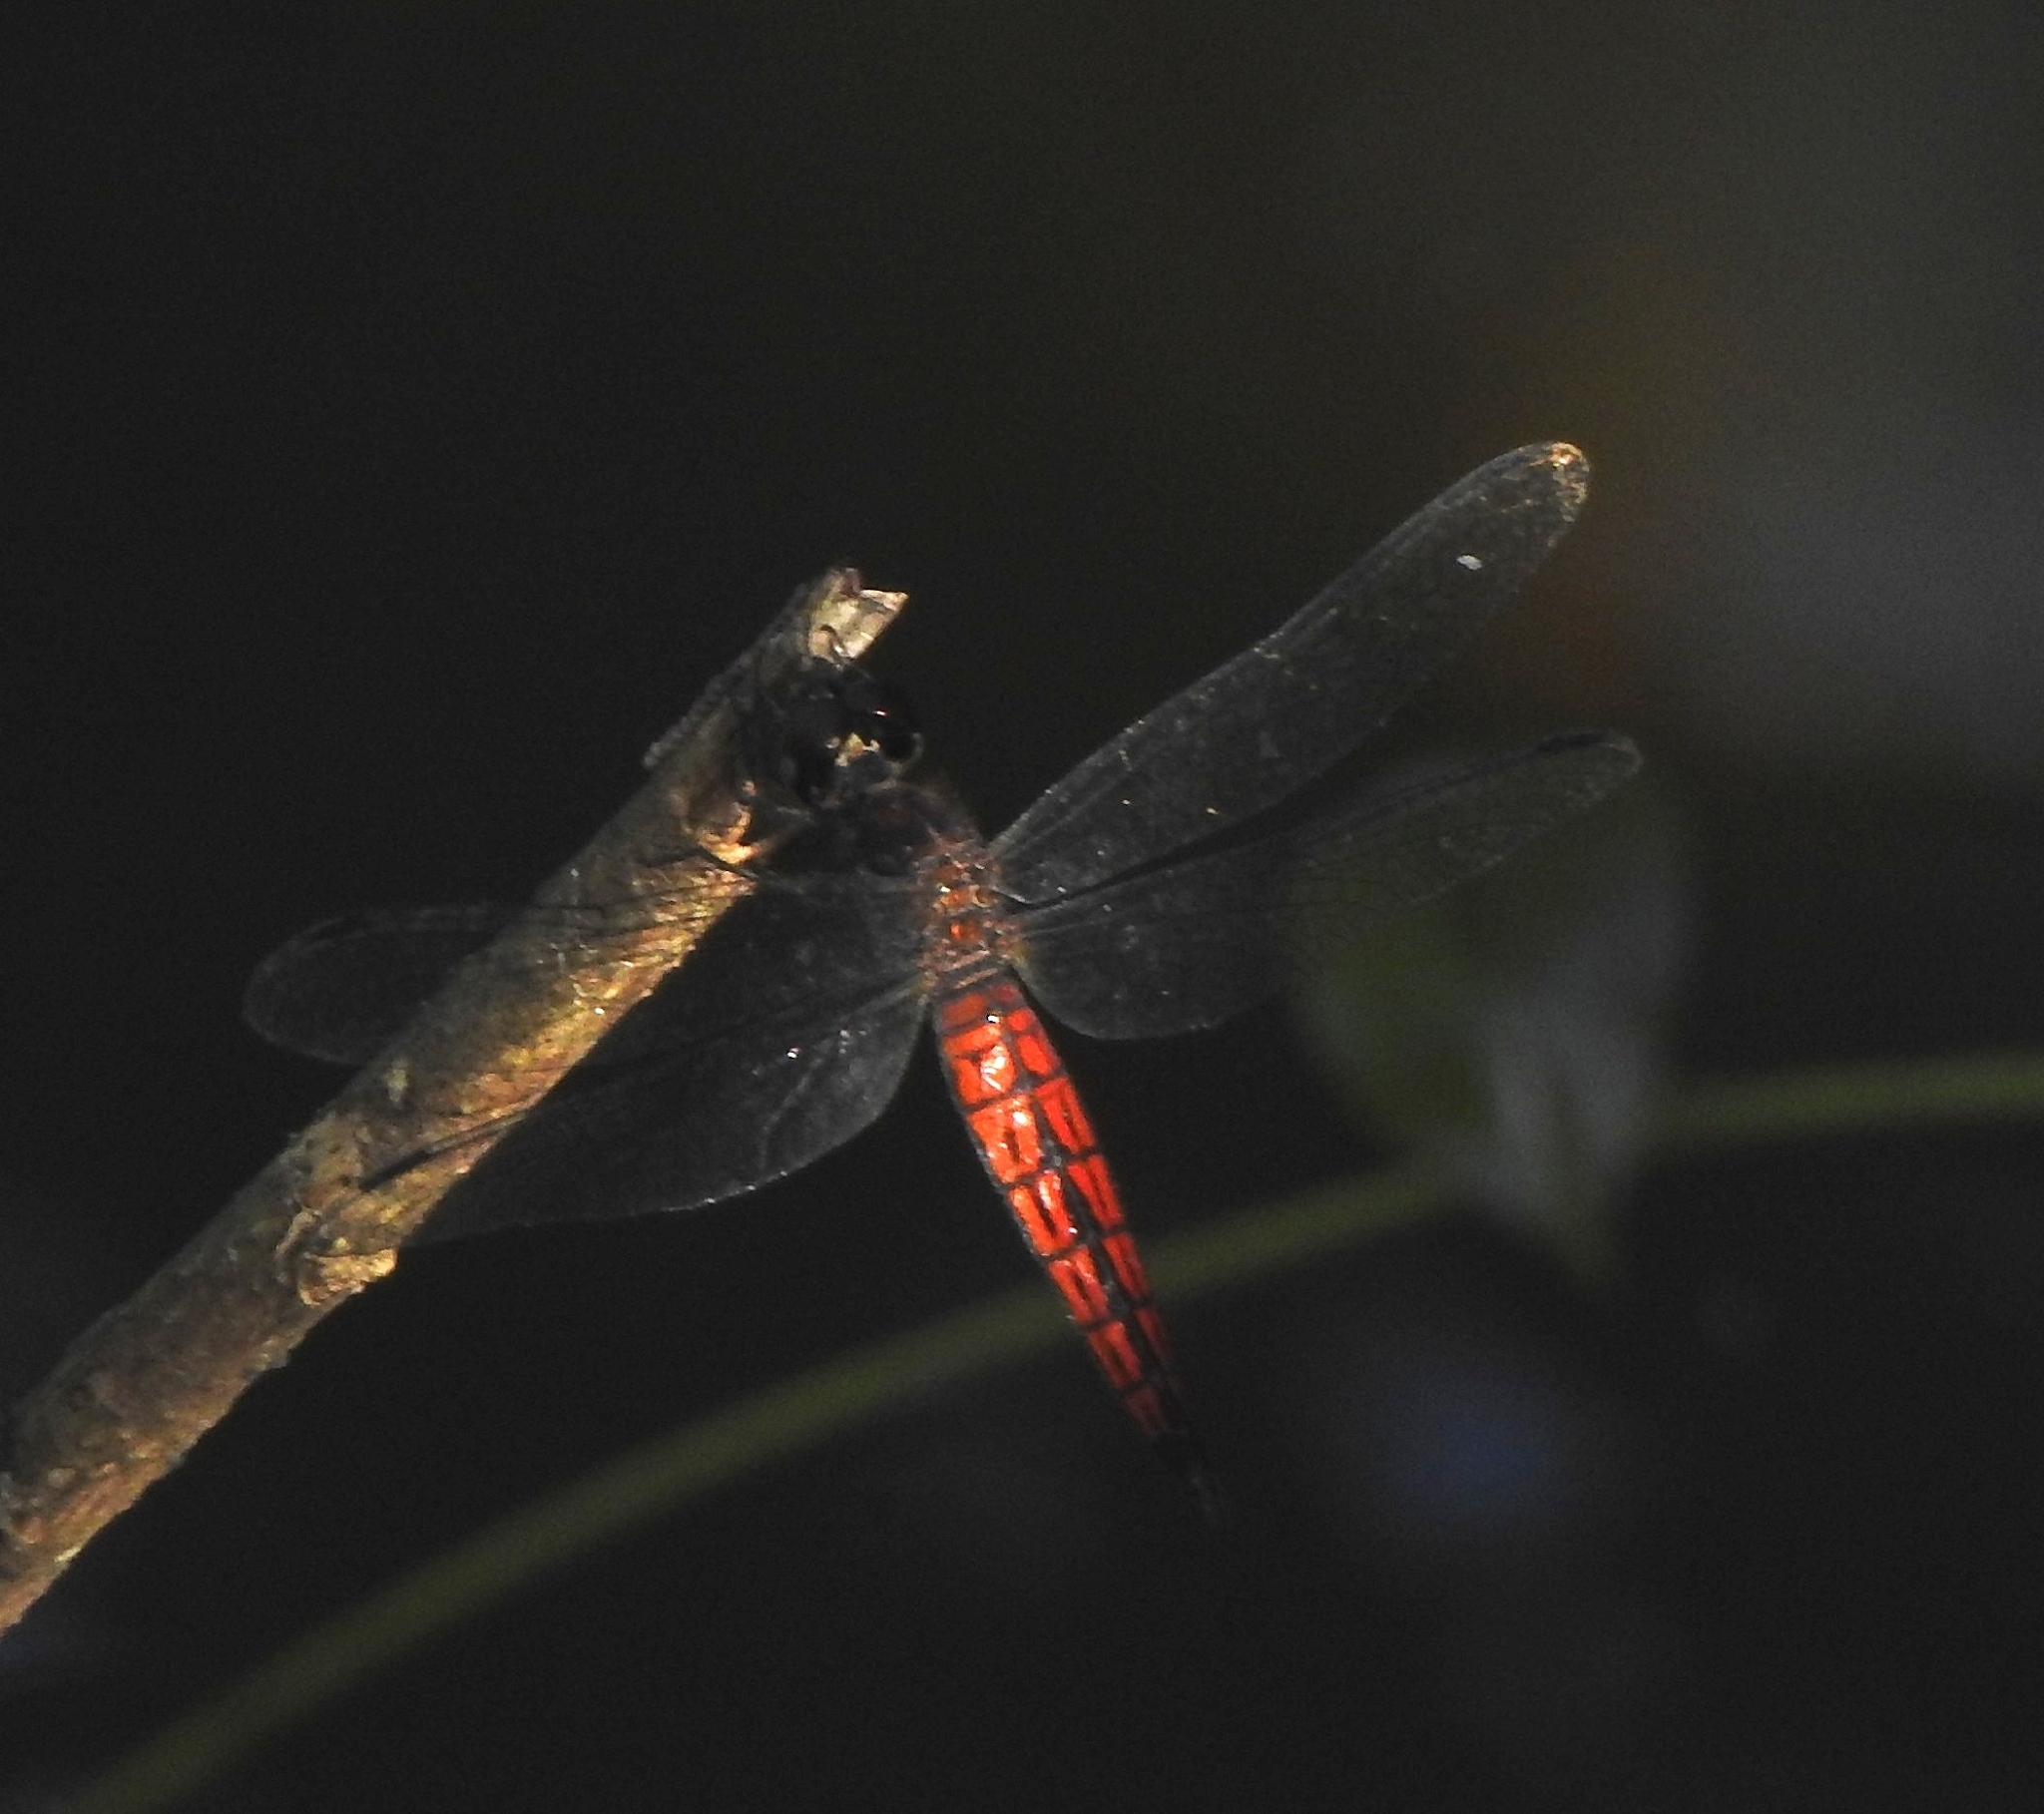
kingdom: Animalia
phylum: Arthropoda
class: Insecta
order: Odonata
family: Libellulidae
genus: Lyriothemis
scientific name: Lyriothemis acigastra
